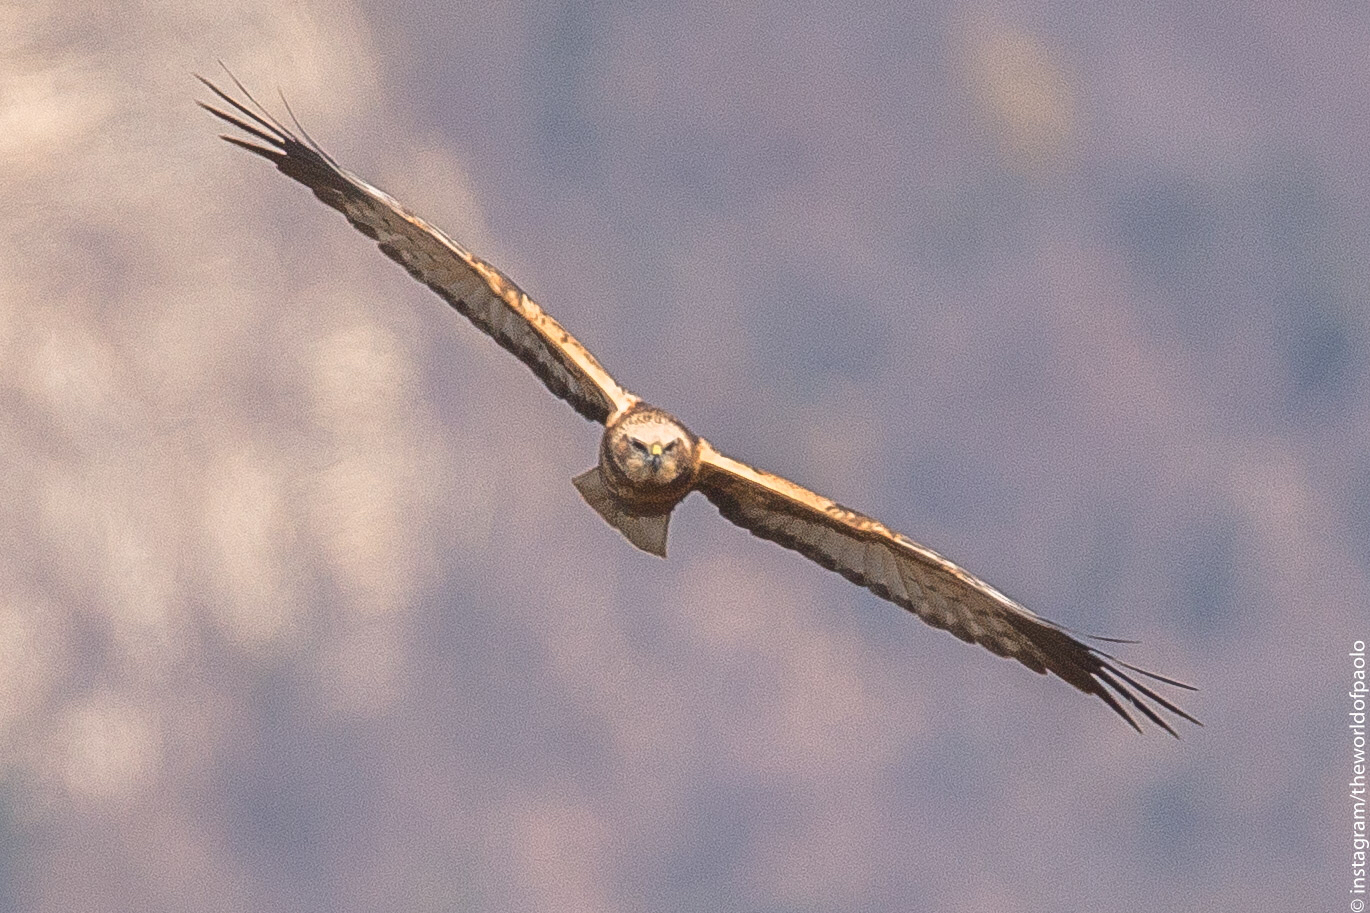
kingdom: Animalia
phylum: Chordata
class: Aves
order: Accipitriformes
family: Accipitridae
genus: Circus
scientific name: Circus aeruginosus
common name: Western marsh harrier
